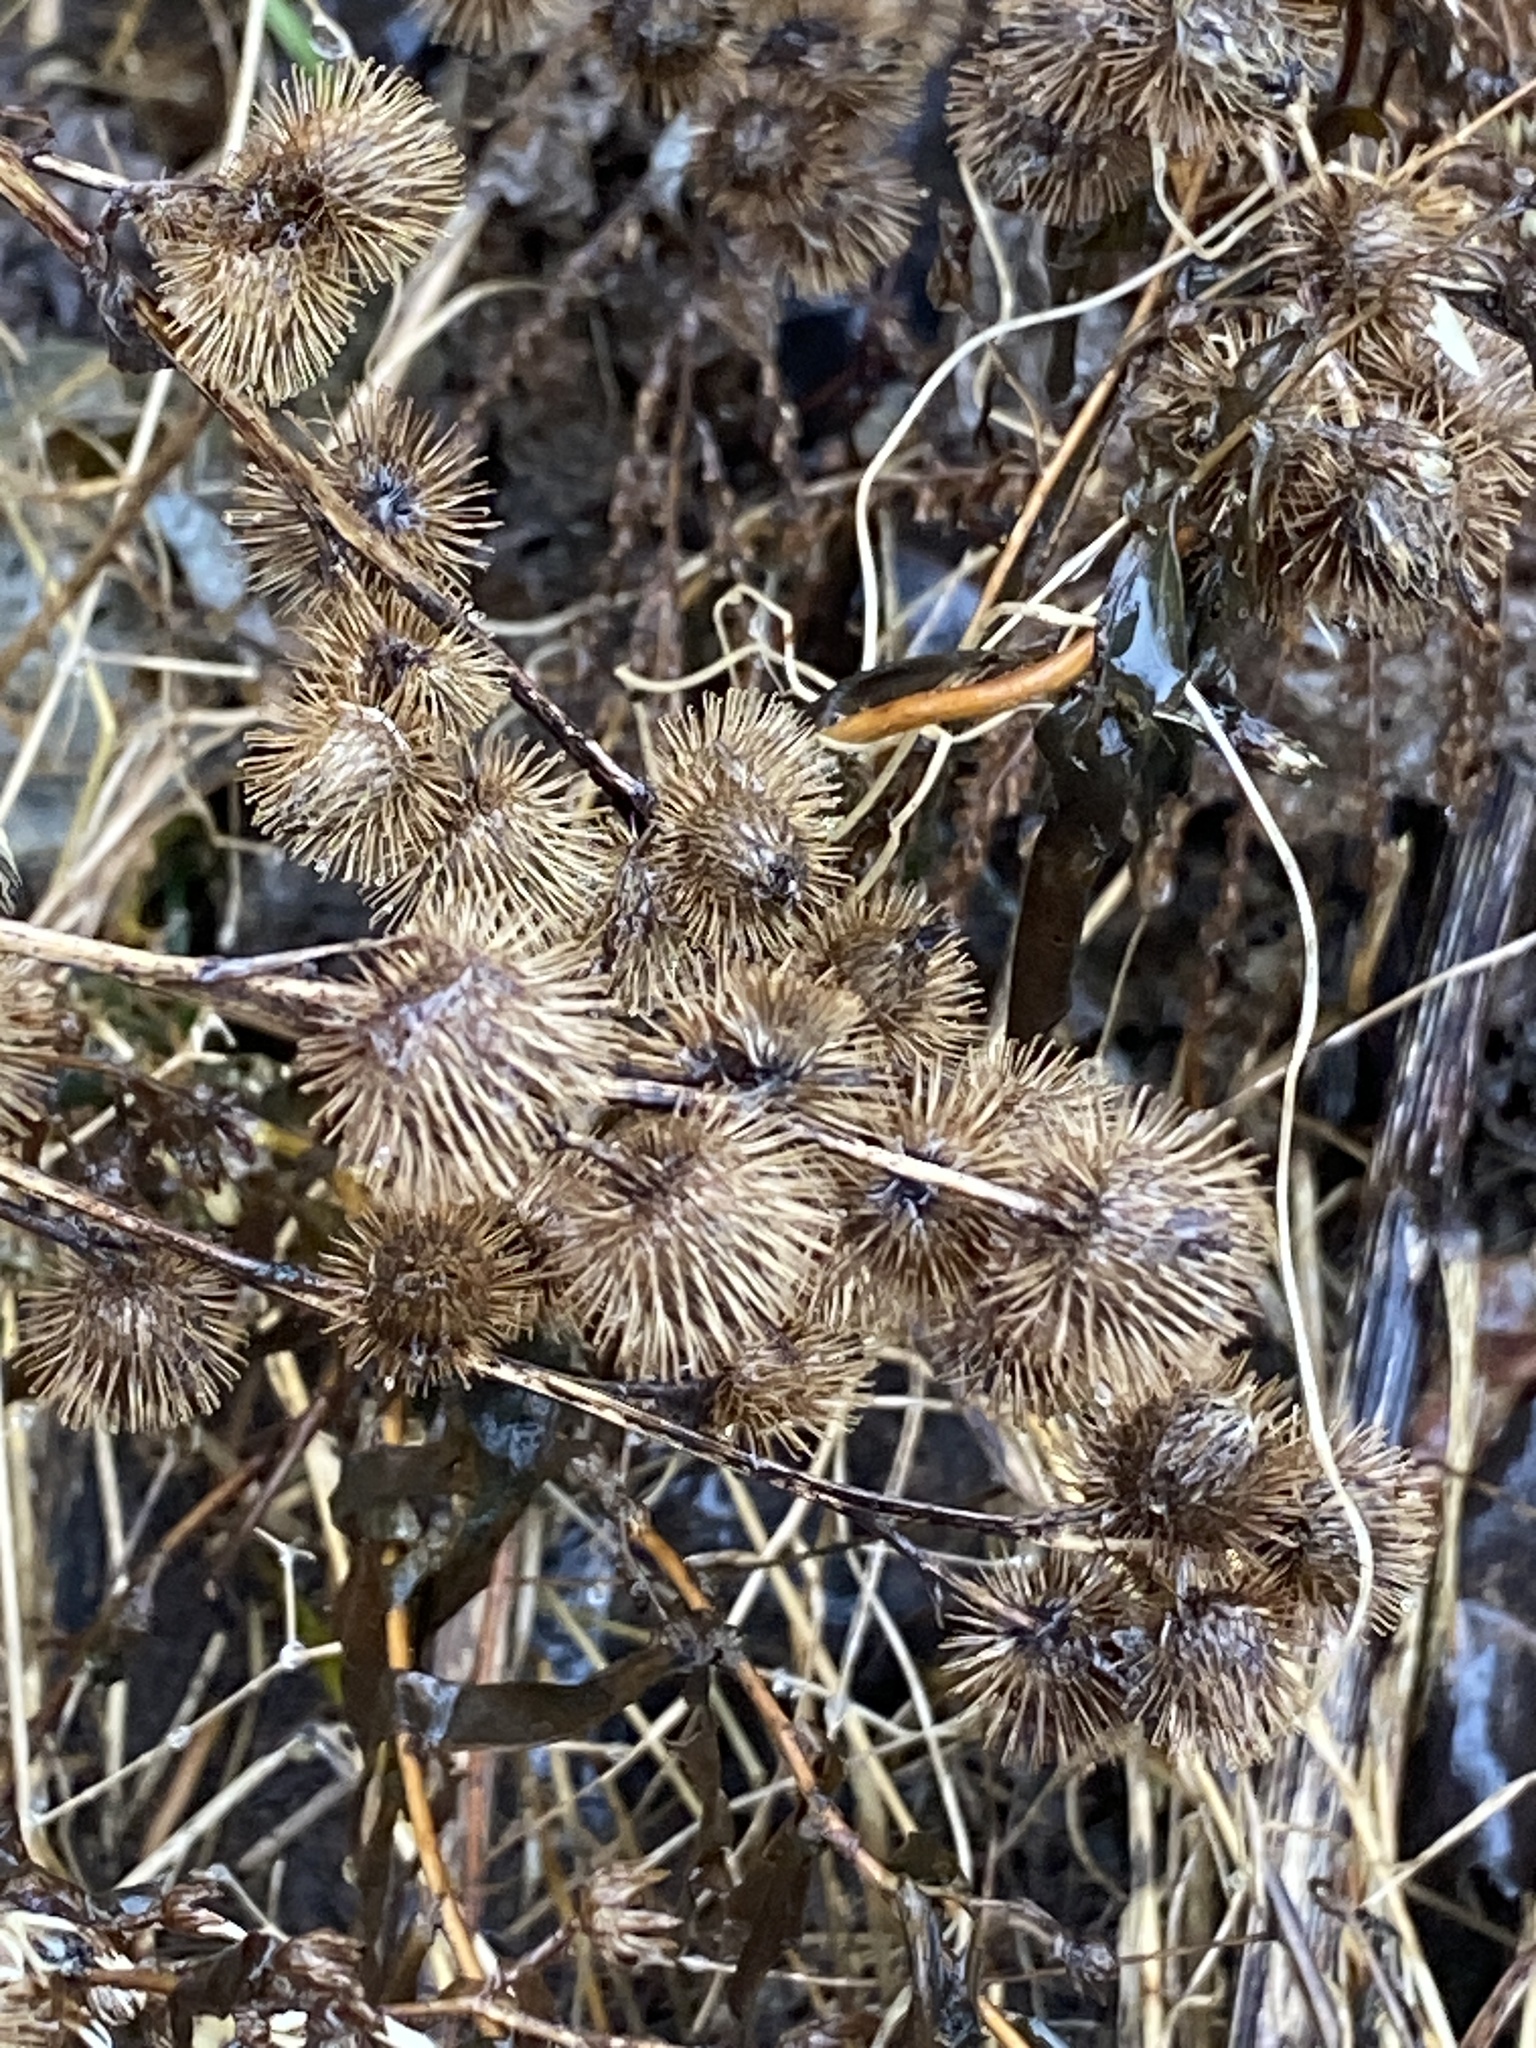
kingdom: Plantae
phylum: Tracheophyta
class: Magnoliopsida
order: Asterales
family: Asteraceae
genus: Arctium
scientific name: Arctium minus
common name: Lesser burdock
